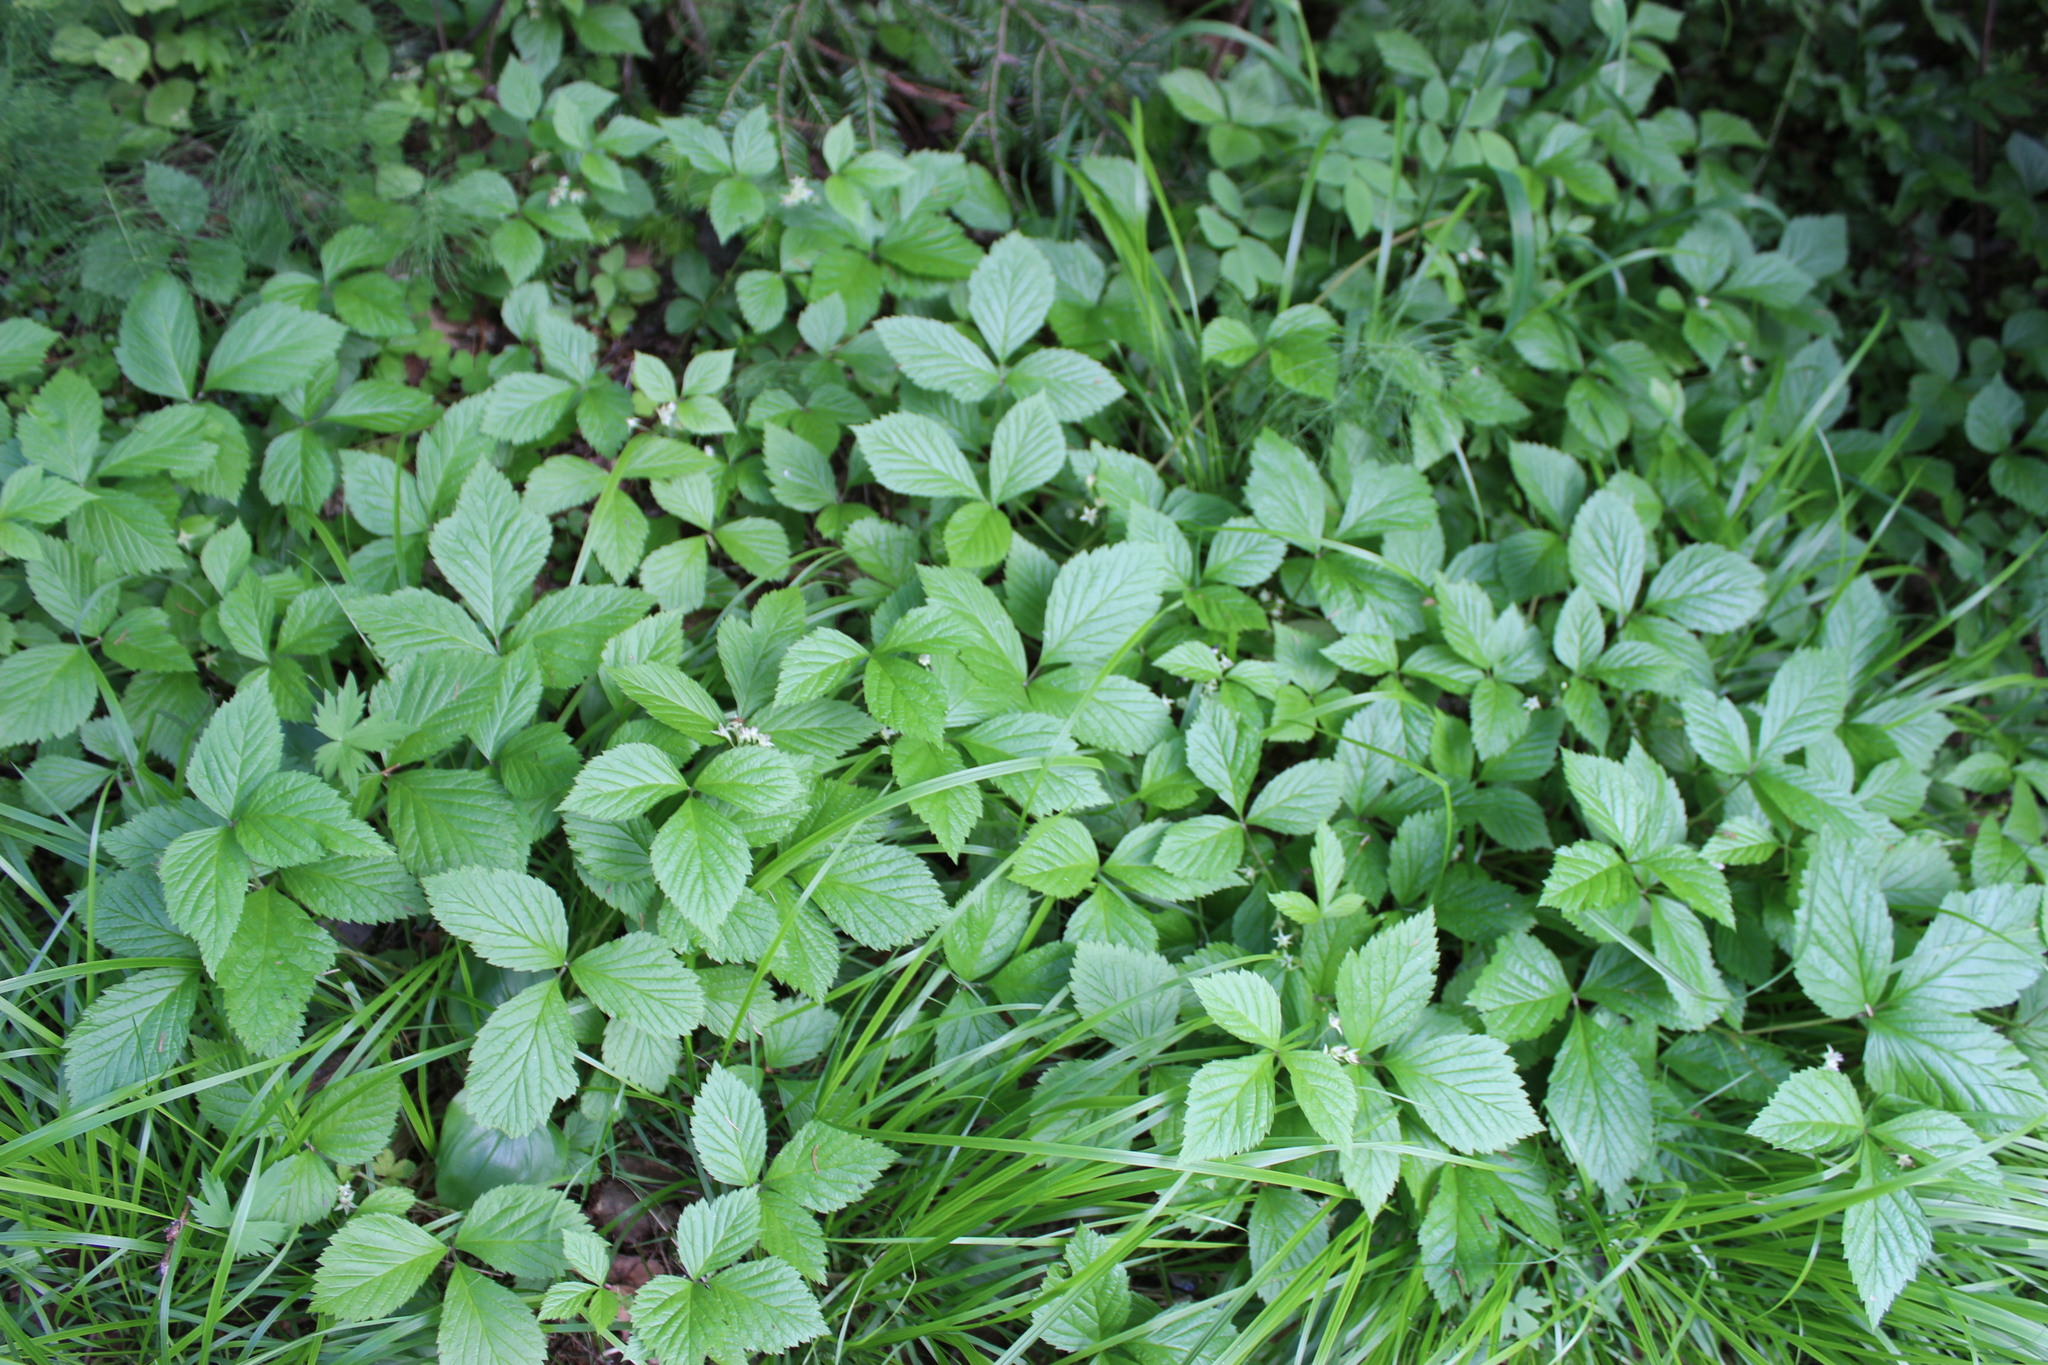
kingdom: Plantae
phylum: Tracheophyta
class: Magnoliopsida
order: Rosales
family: Rosaceae
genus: Rubus
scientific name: Rubus saxatilis
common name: Stone bramble
